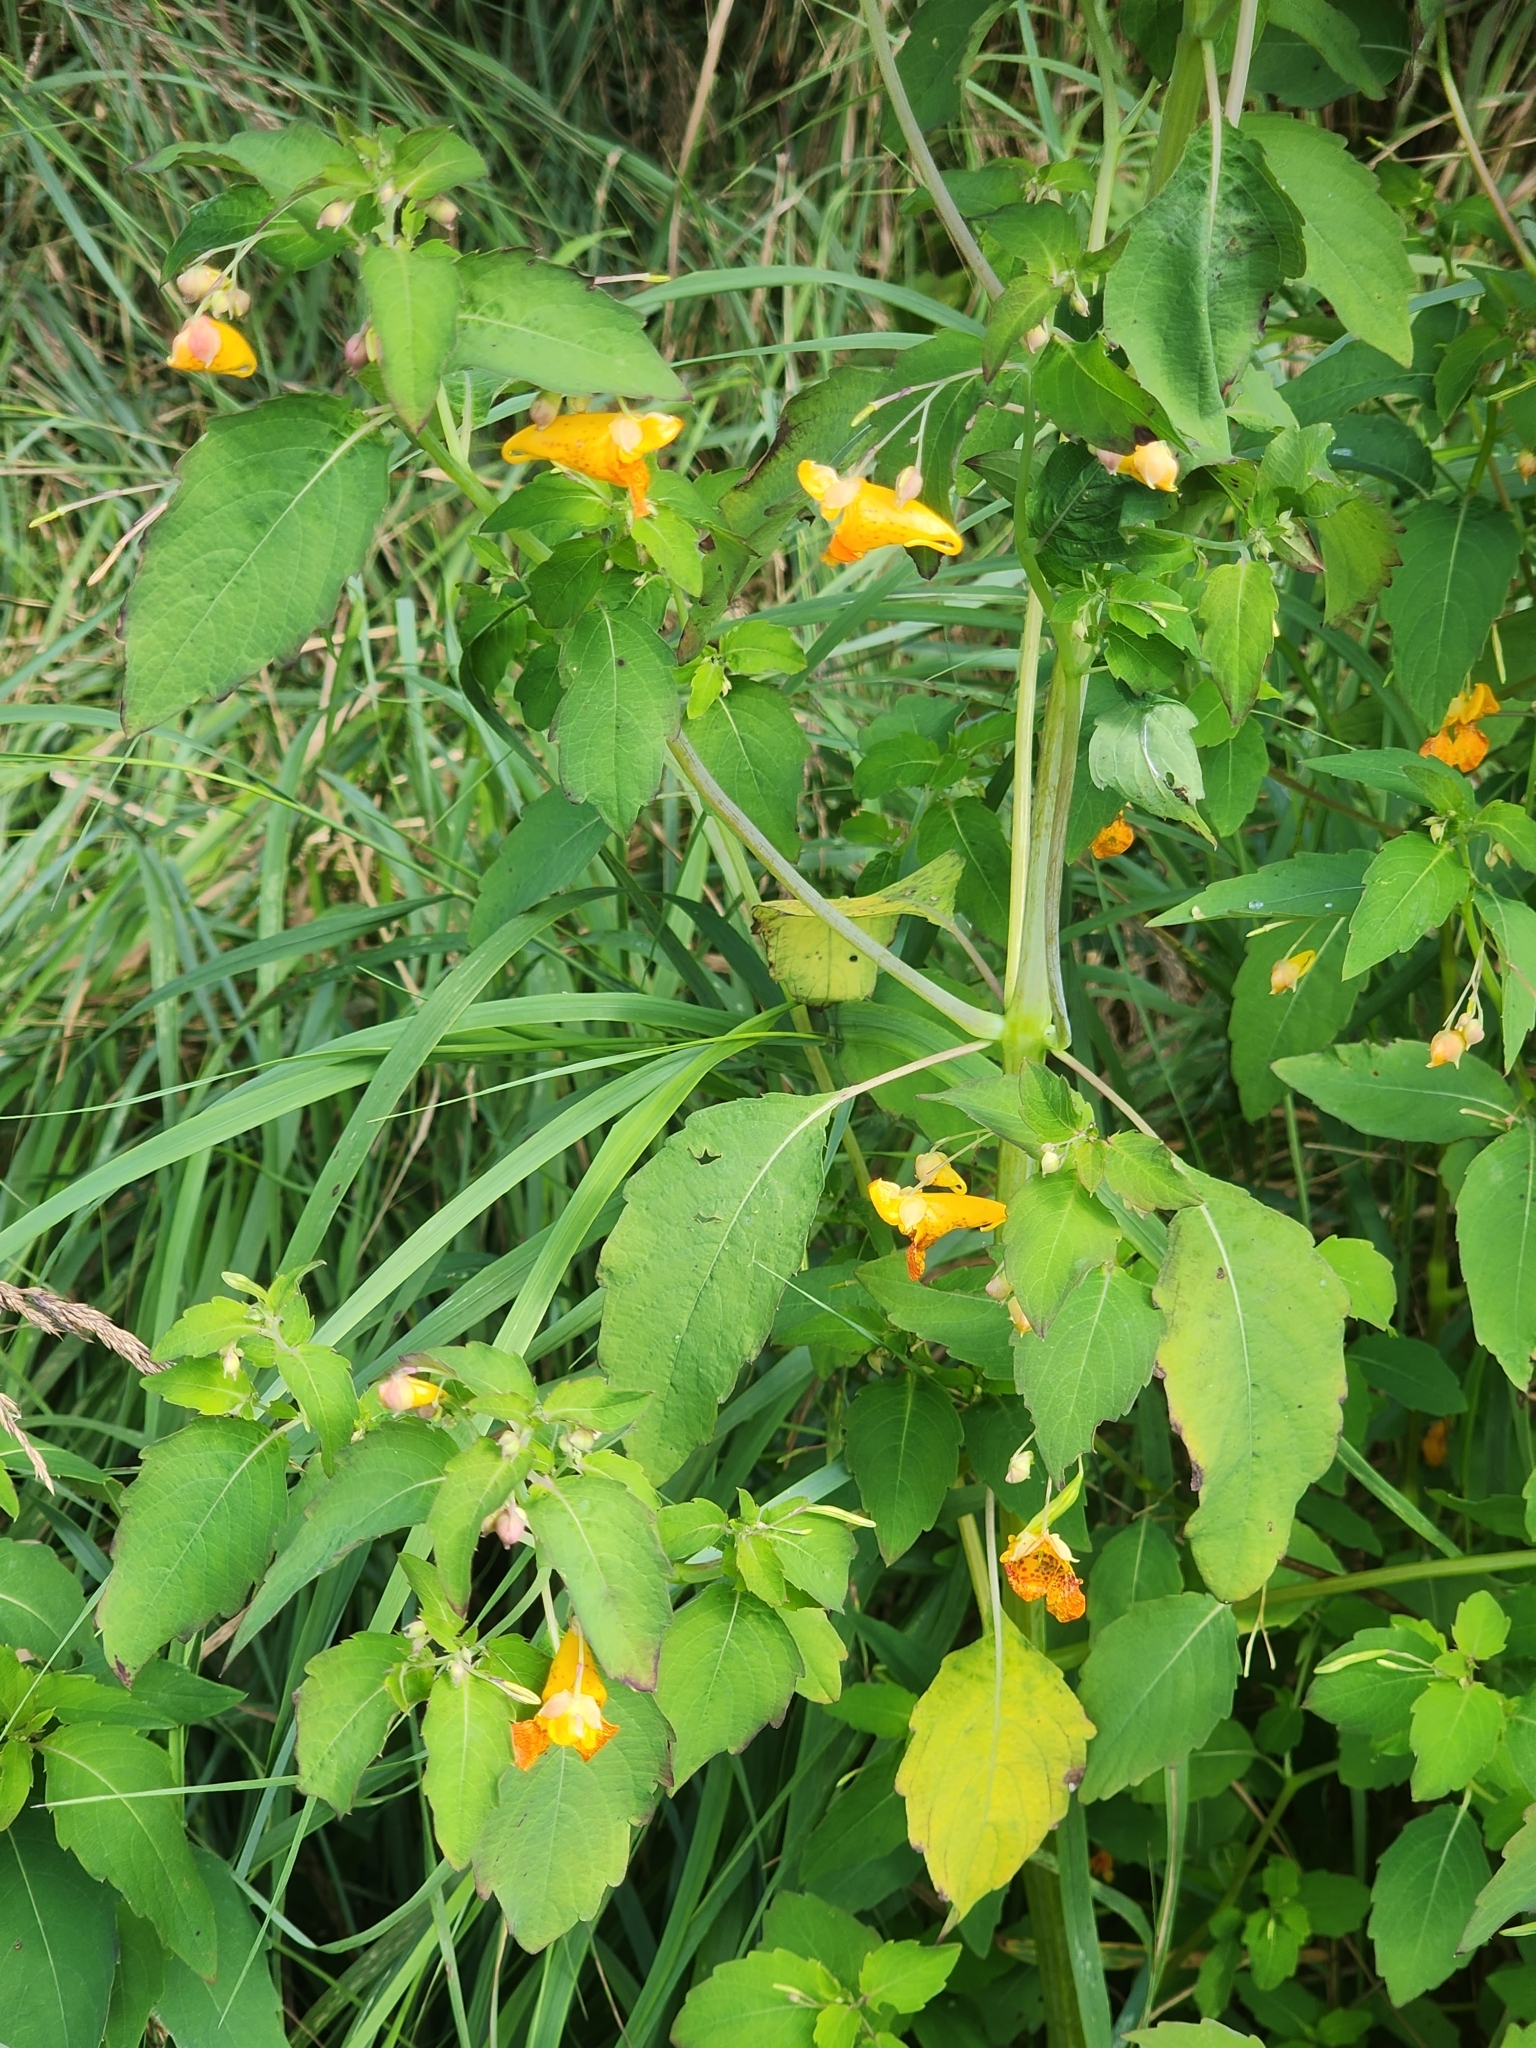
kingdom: Plantae
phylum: Tracheophyta
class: Magnoliopsida
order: Ericales
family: Balsaminaceae
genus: Impatiens
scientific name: Impatiens capensis
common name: Orange balsam
